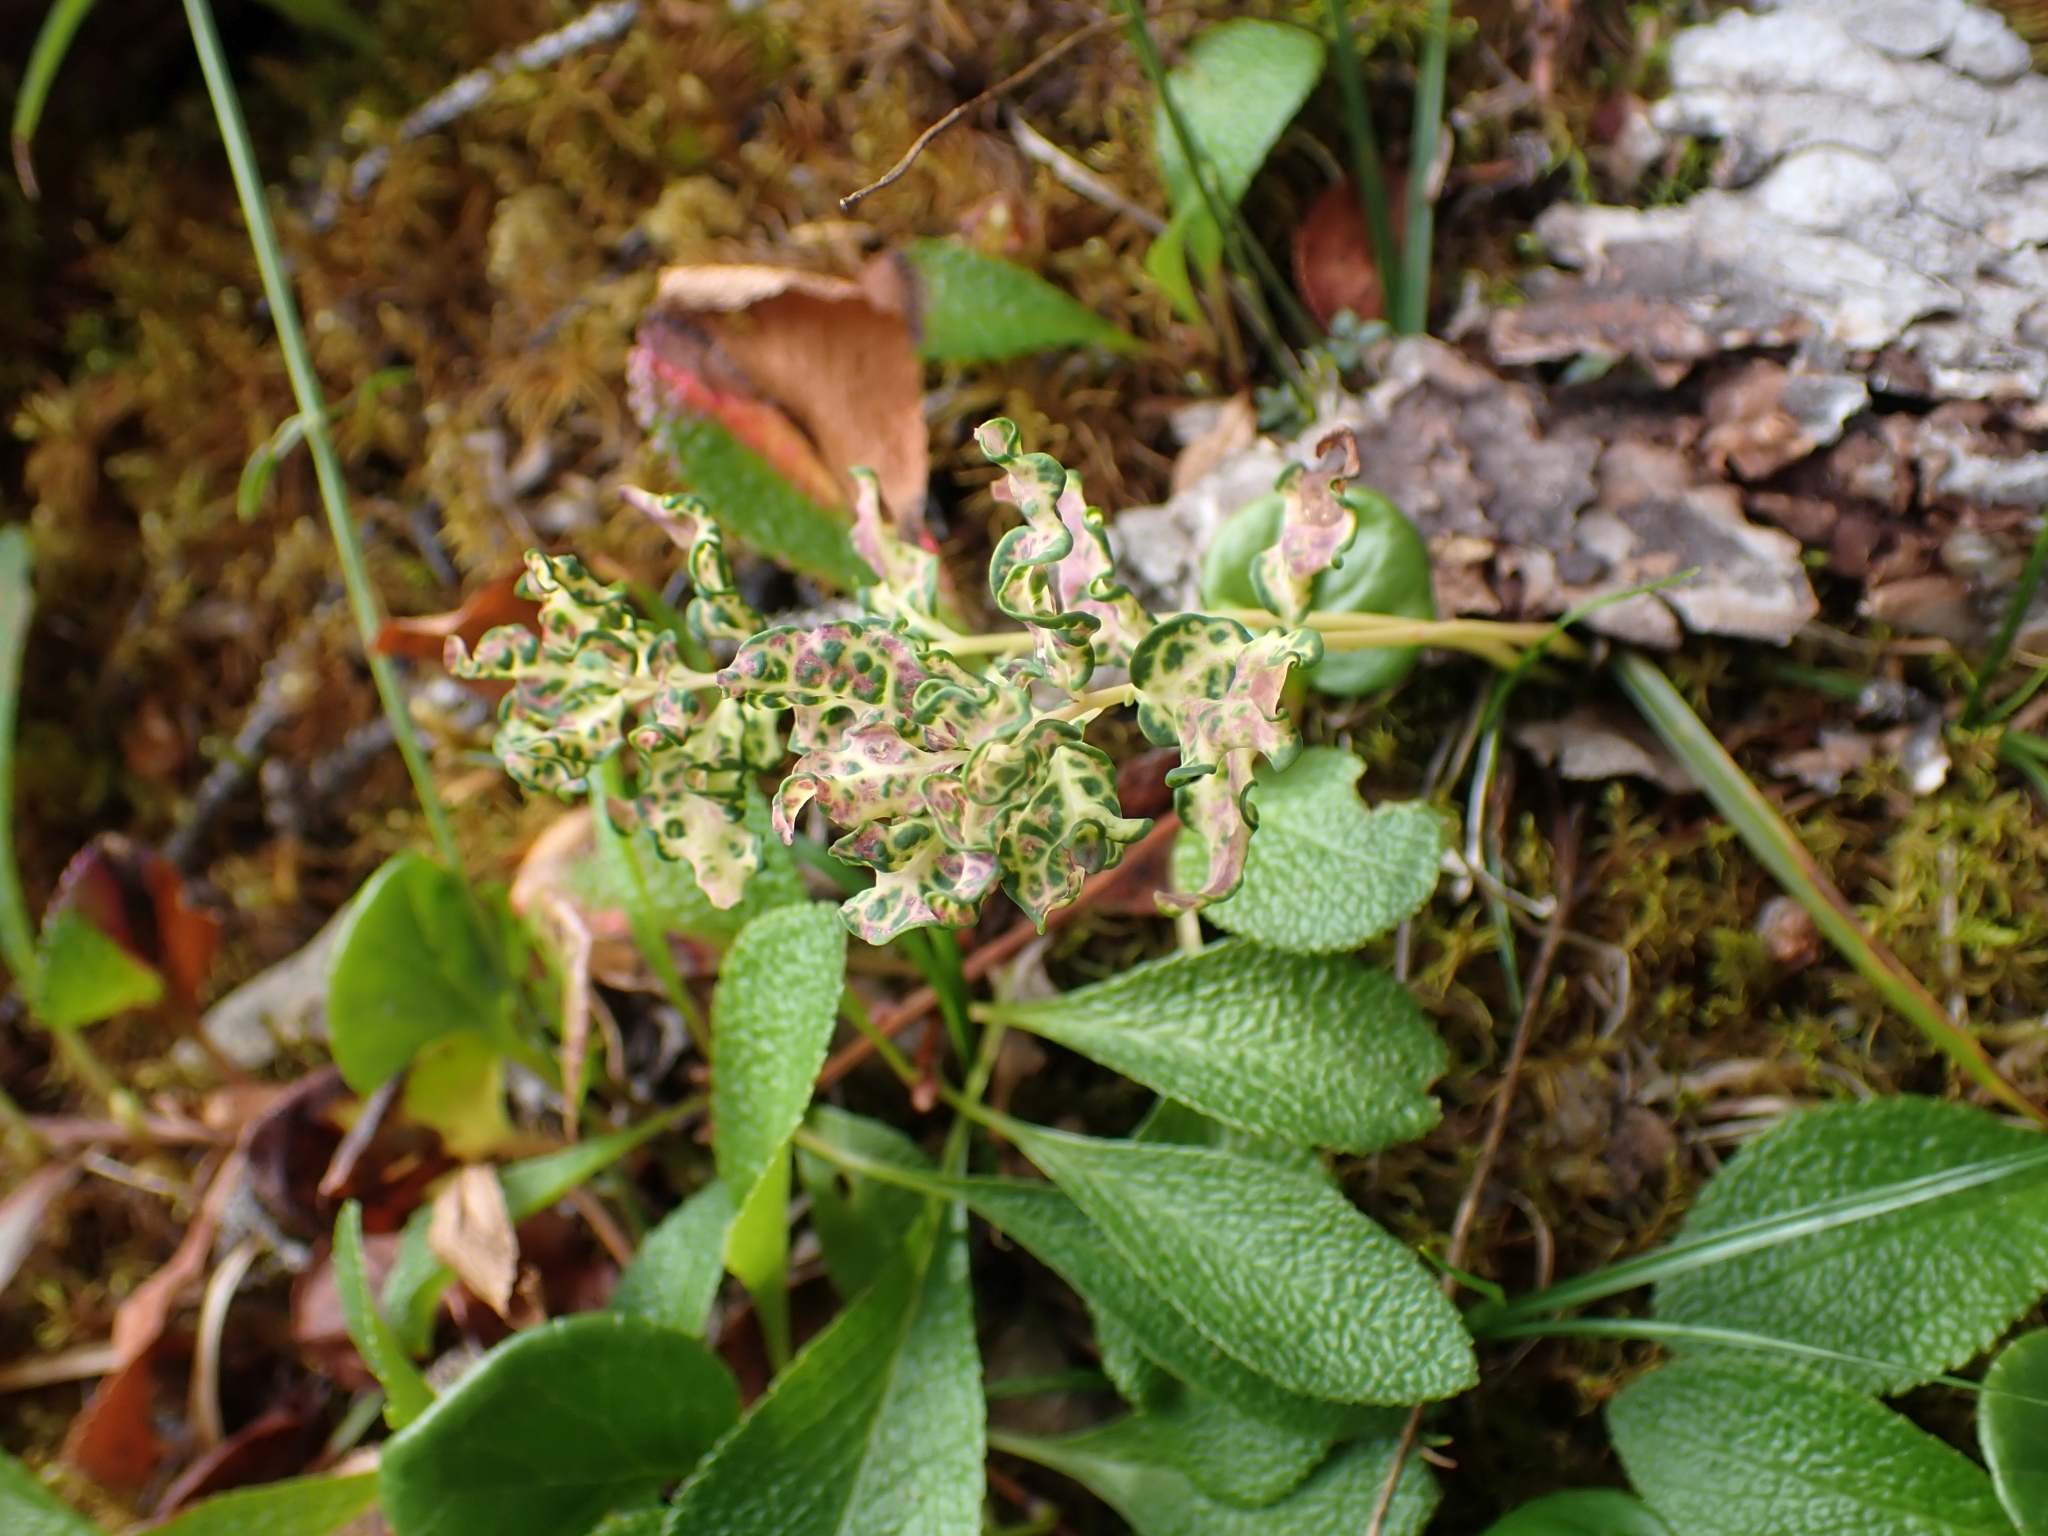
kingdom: Plantae
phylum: Tracheophyta
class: Magnoliopsida
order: Santalales
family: Comandraceae
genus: Geocaulon
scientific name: Geocaulon lividum
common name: Earthberry
